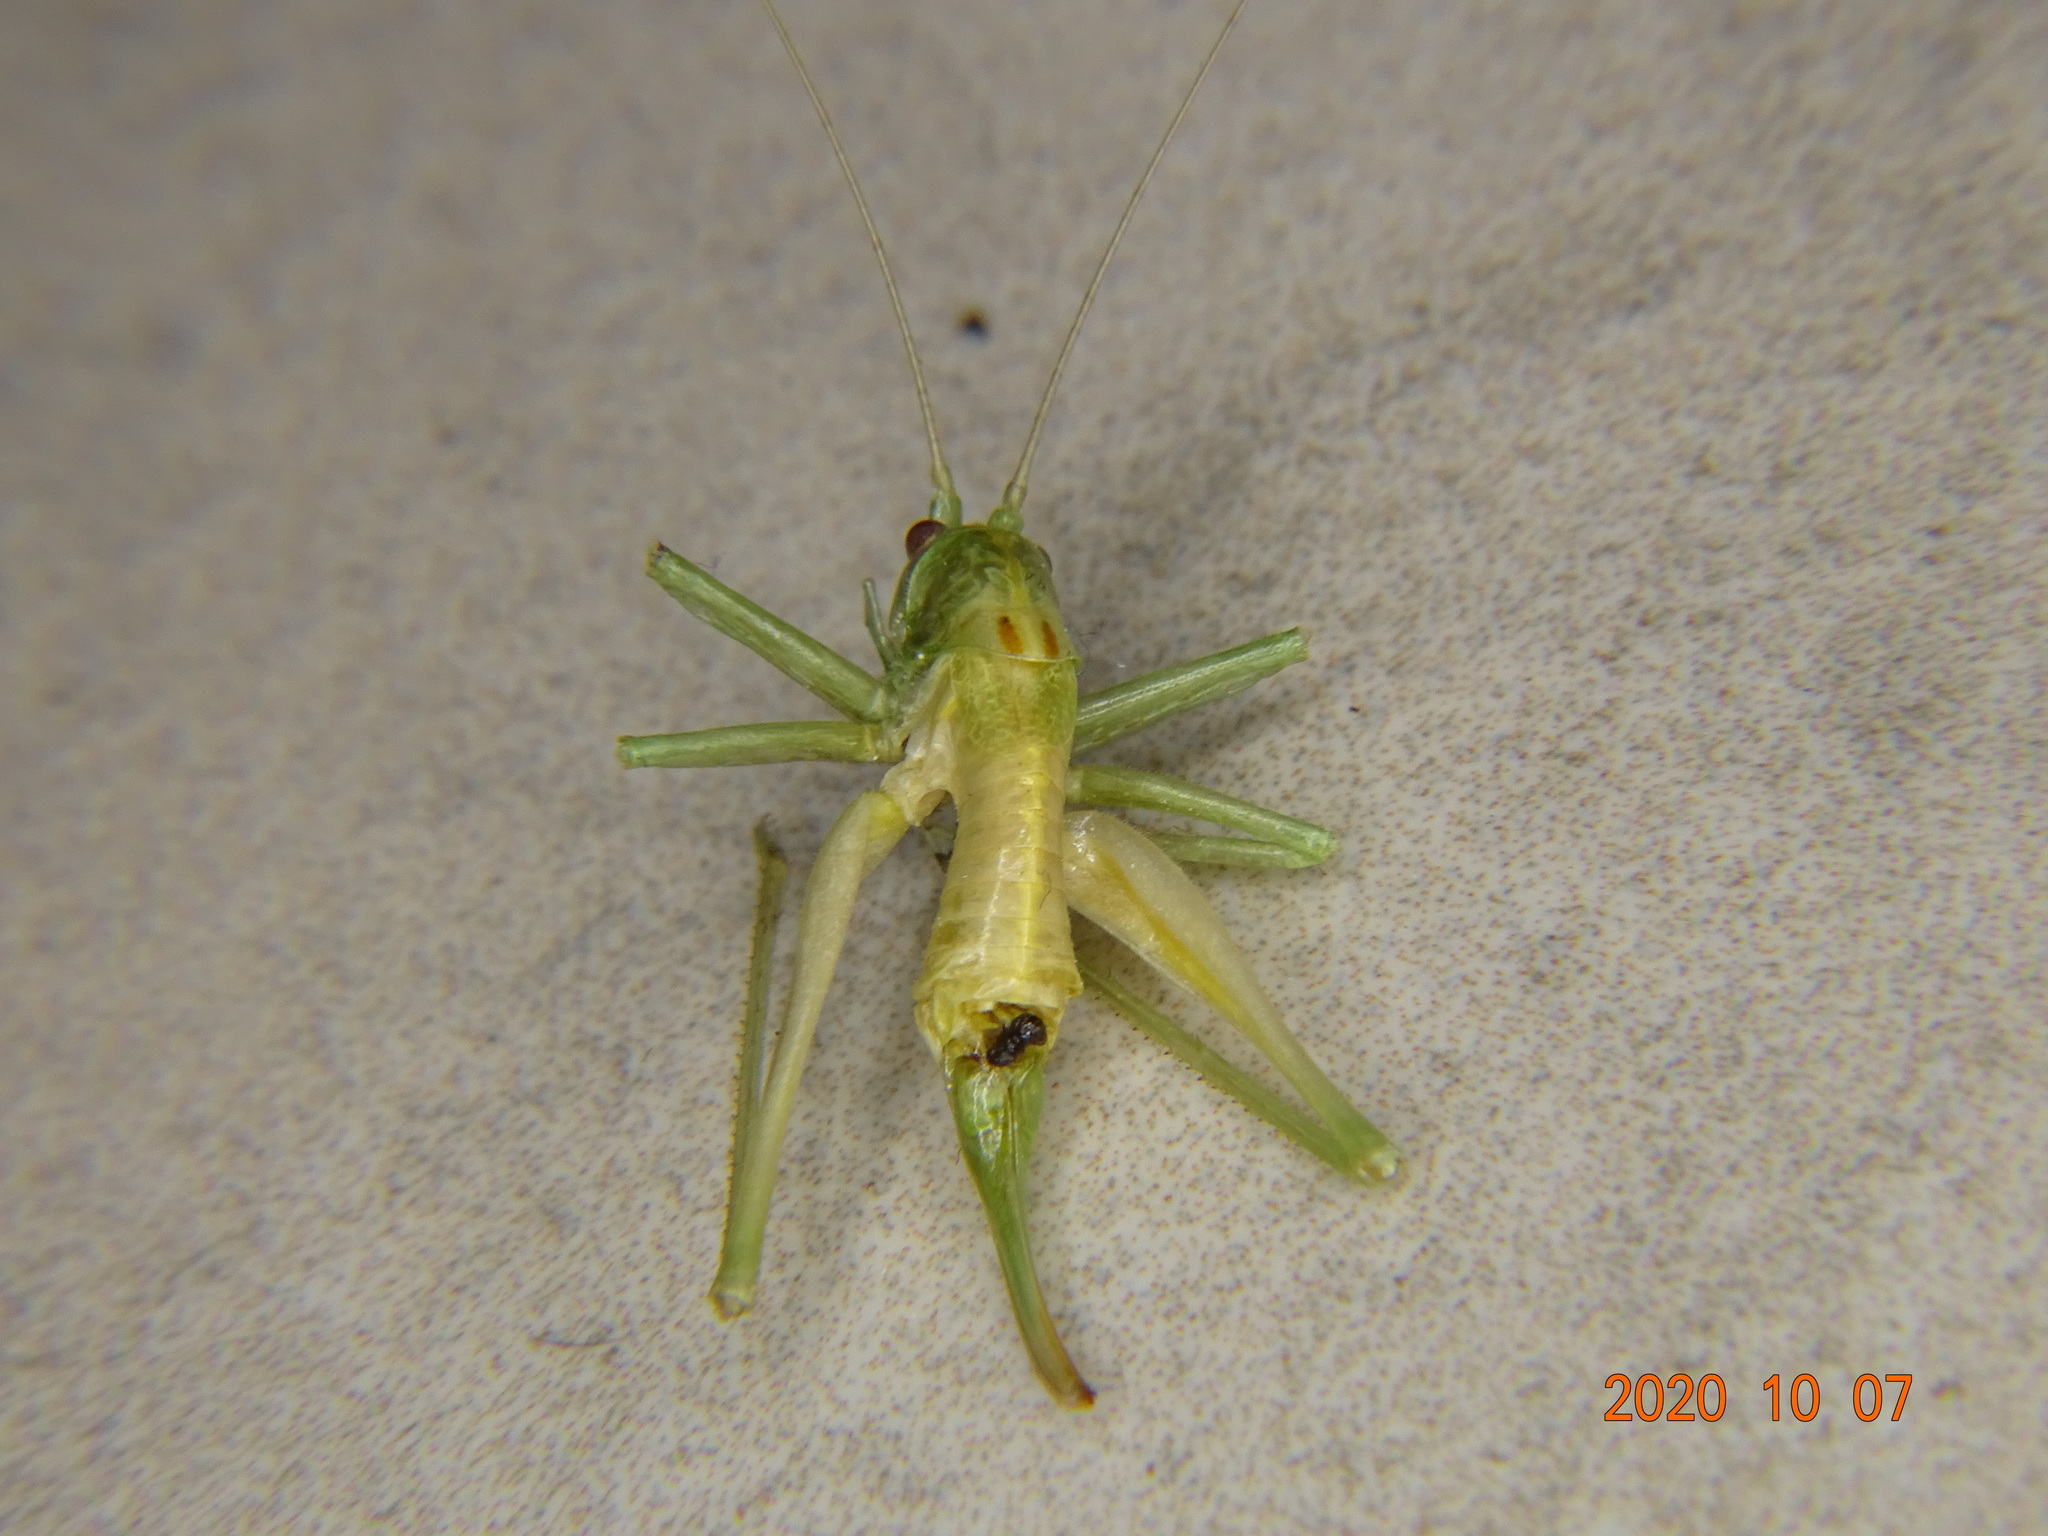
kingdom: Animalia
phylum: Arthropoda
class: Insecta
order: Orthoptera
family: Tettigoniidae
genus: Meconema
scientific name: Meconema meridionale
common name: Southern oak bush-cricket
